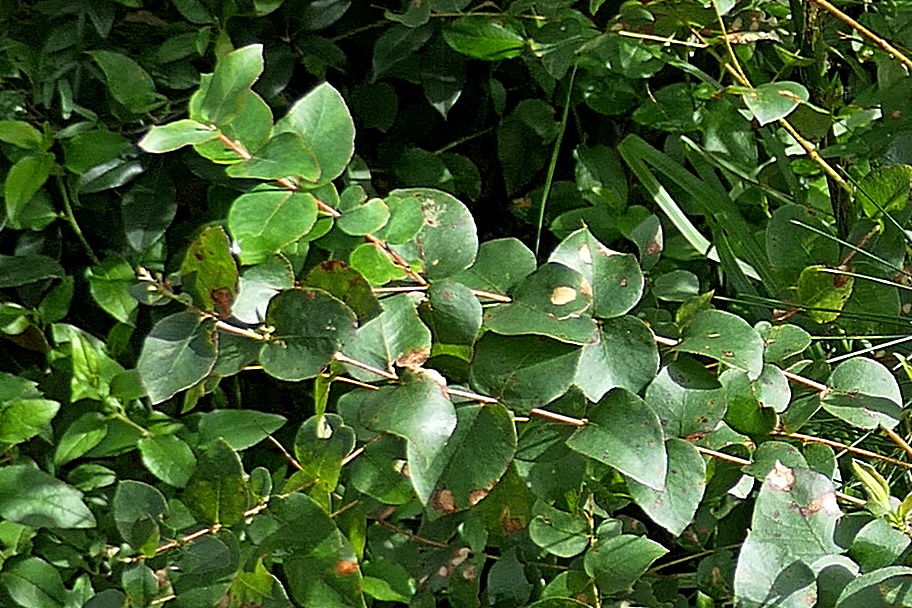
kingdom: Plantae
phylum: Tracheophyta
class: Magnoliopsida
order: Myrtales
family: Myrtaceae
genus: Eucalyptus
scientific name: Eucalyptus angophoroides
